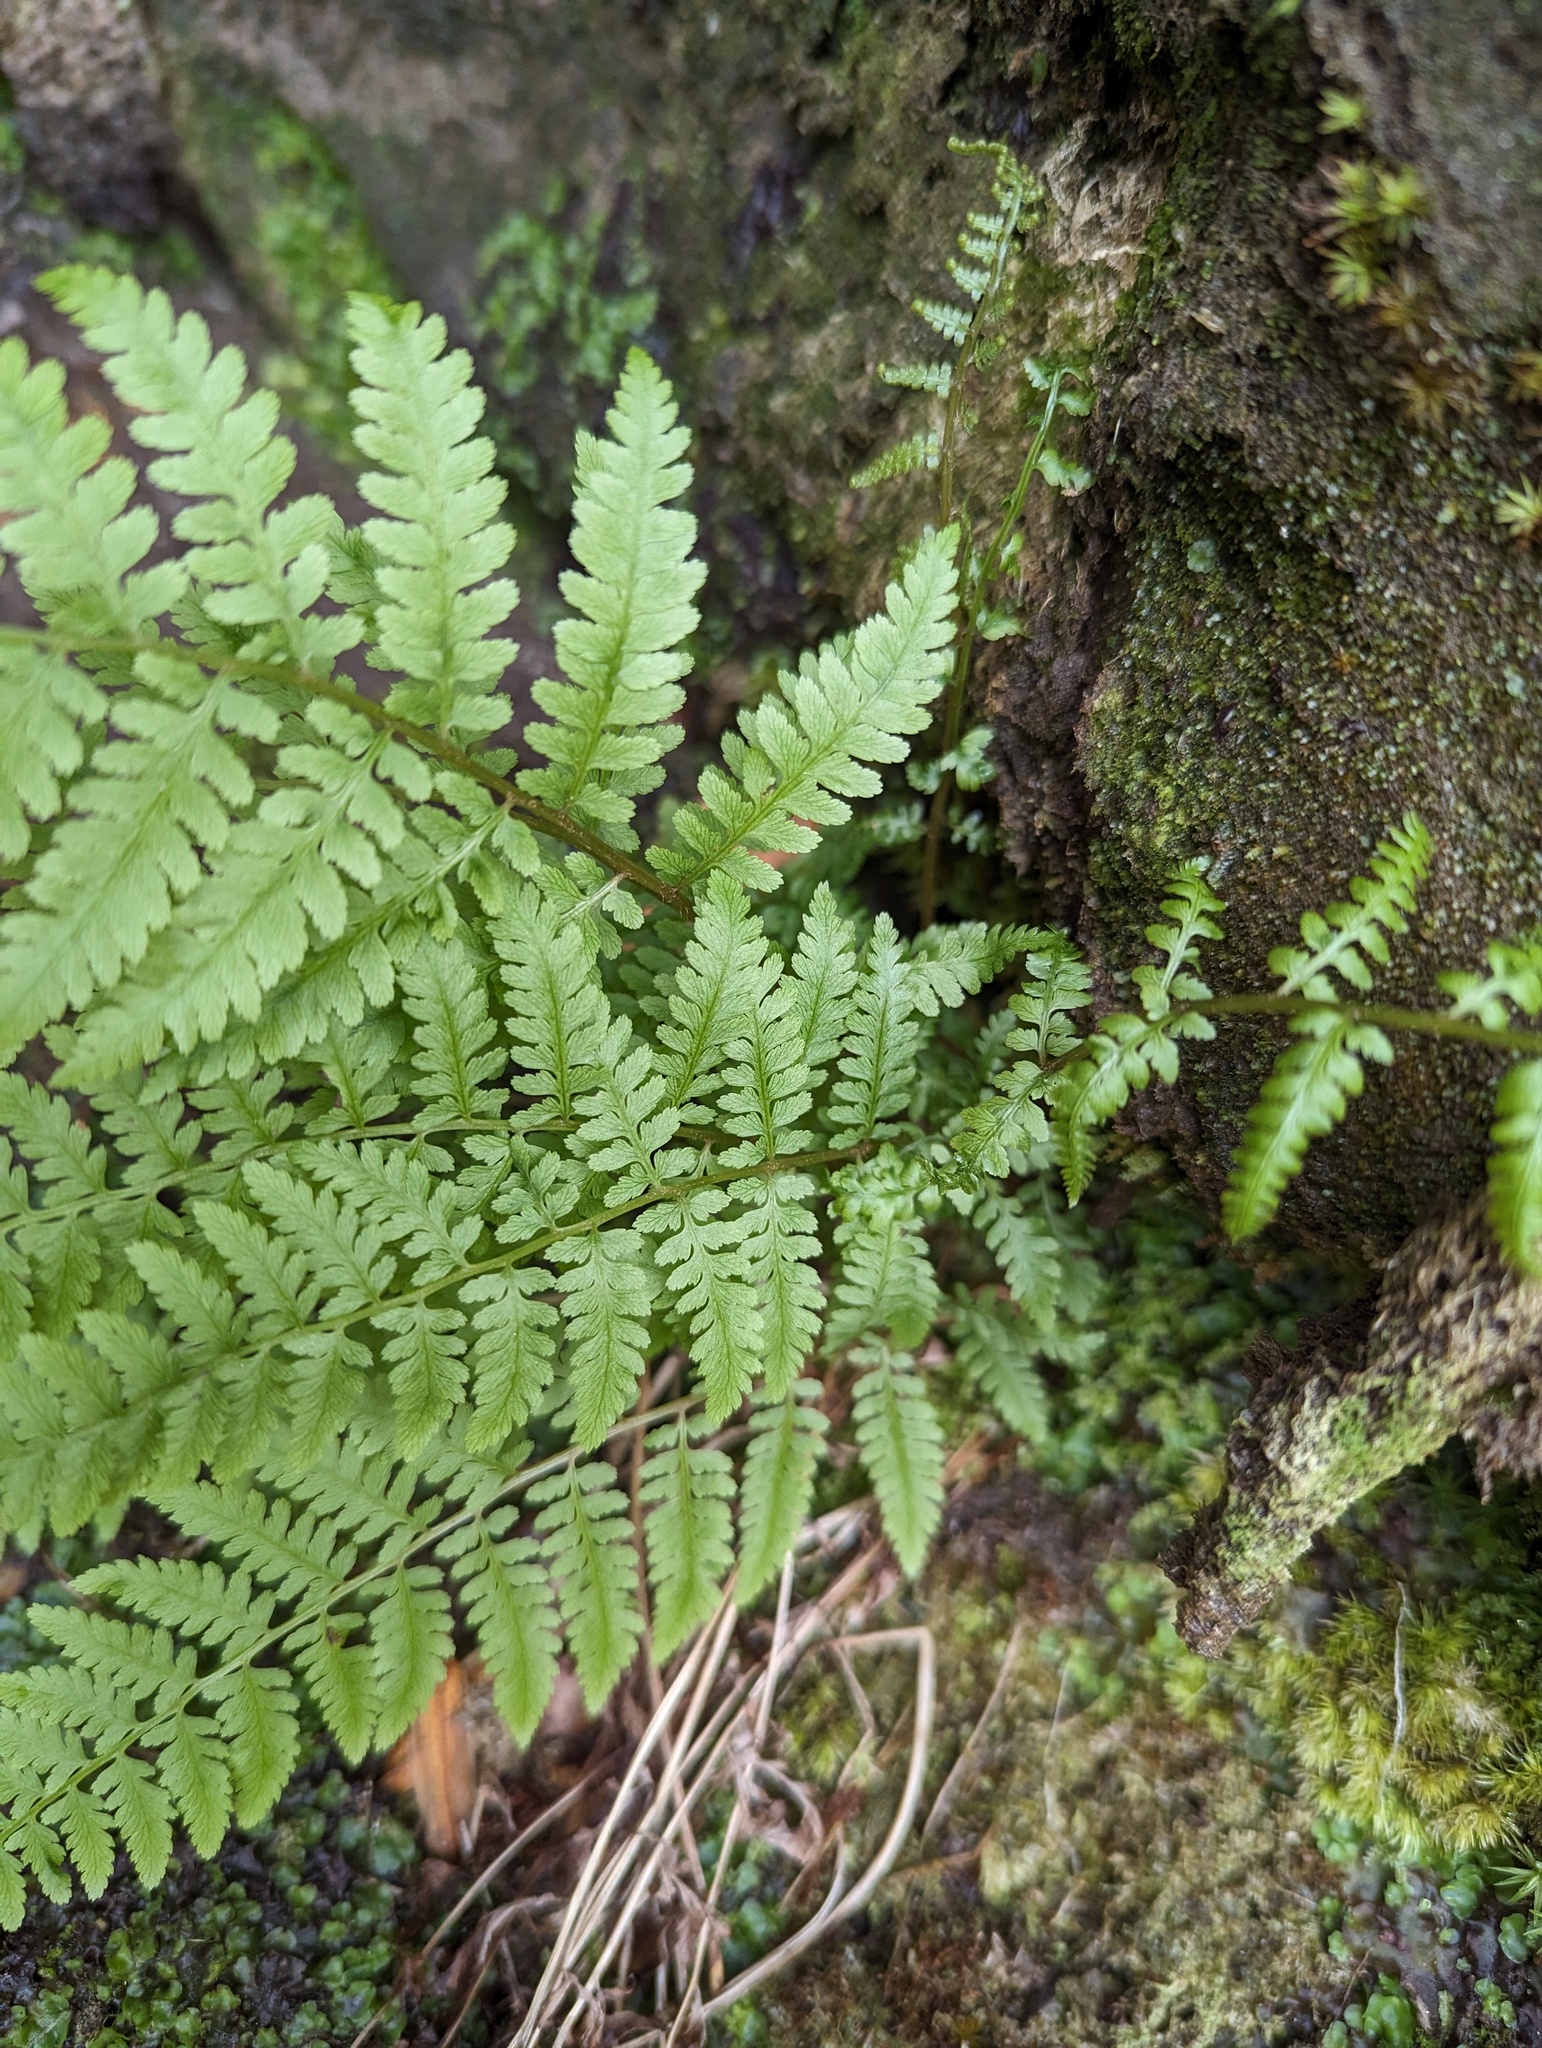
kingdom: Plantae
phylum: Tracheophyta
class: Polypodiopsida
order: Polypodiales
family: Athyriaceae
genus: Athyrium
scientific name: Athyrium asplenioides
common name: Southern lady fern
